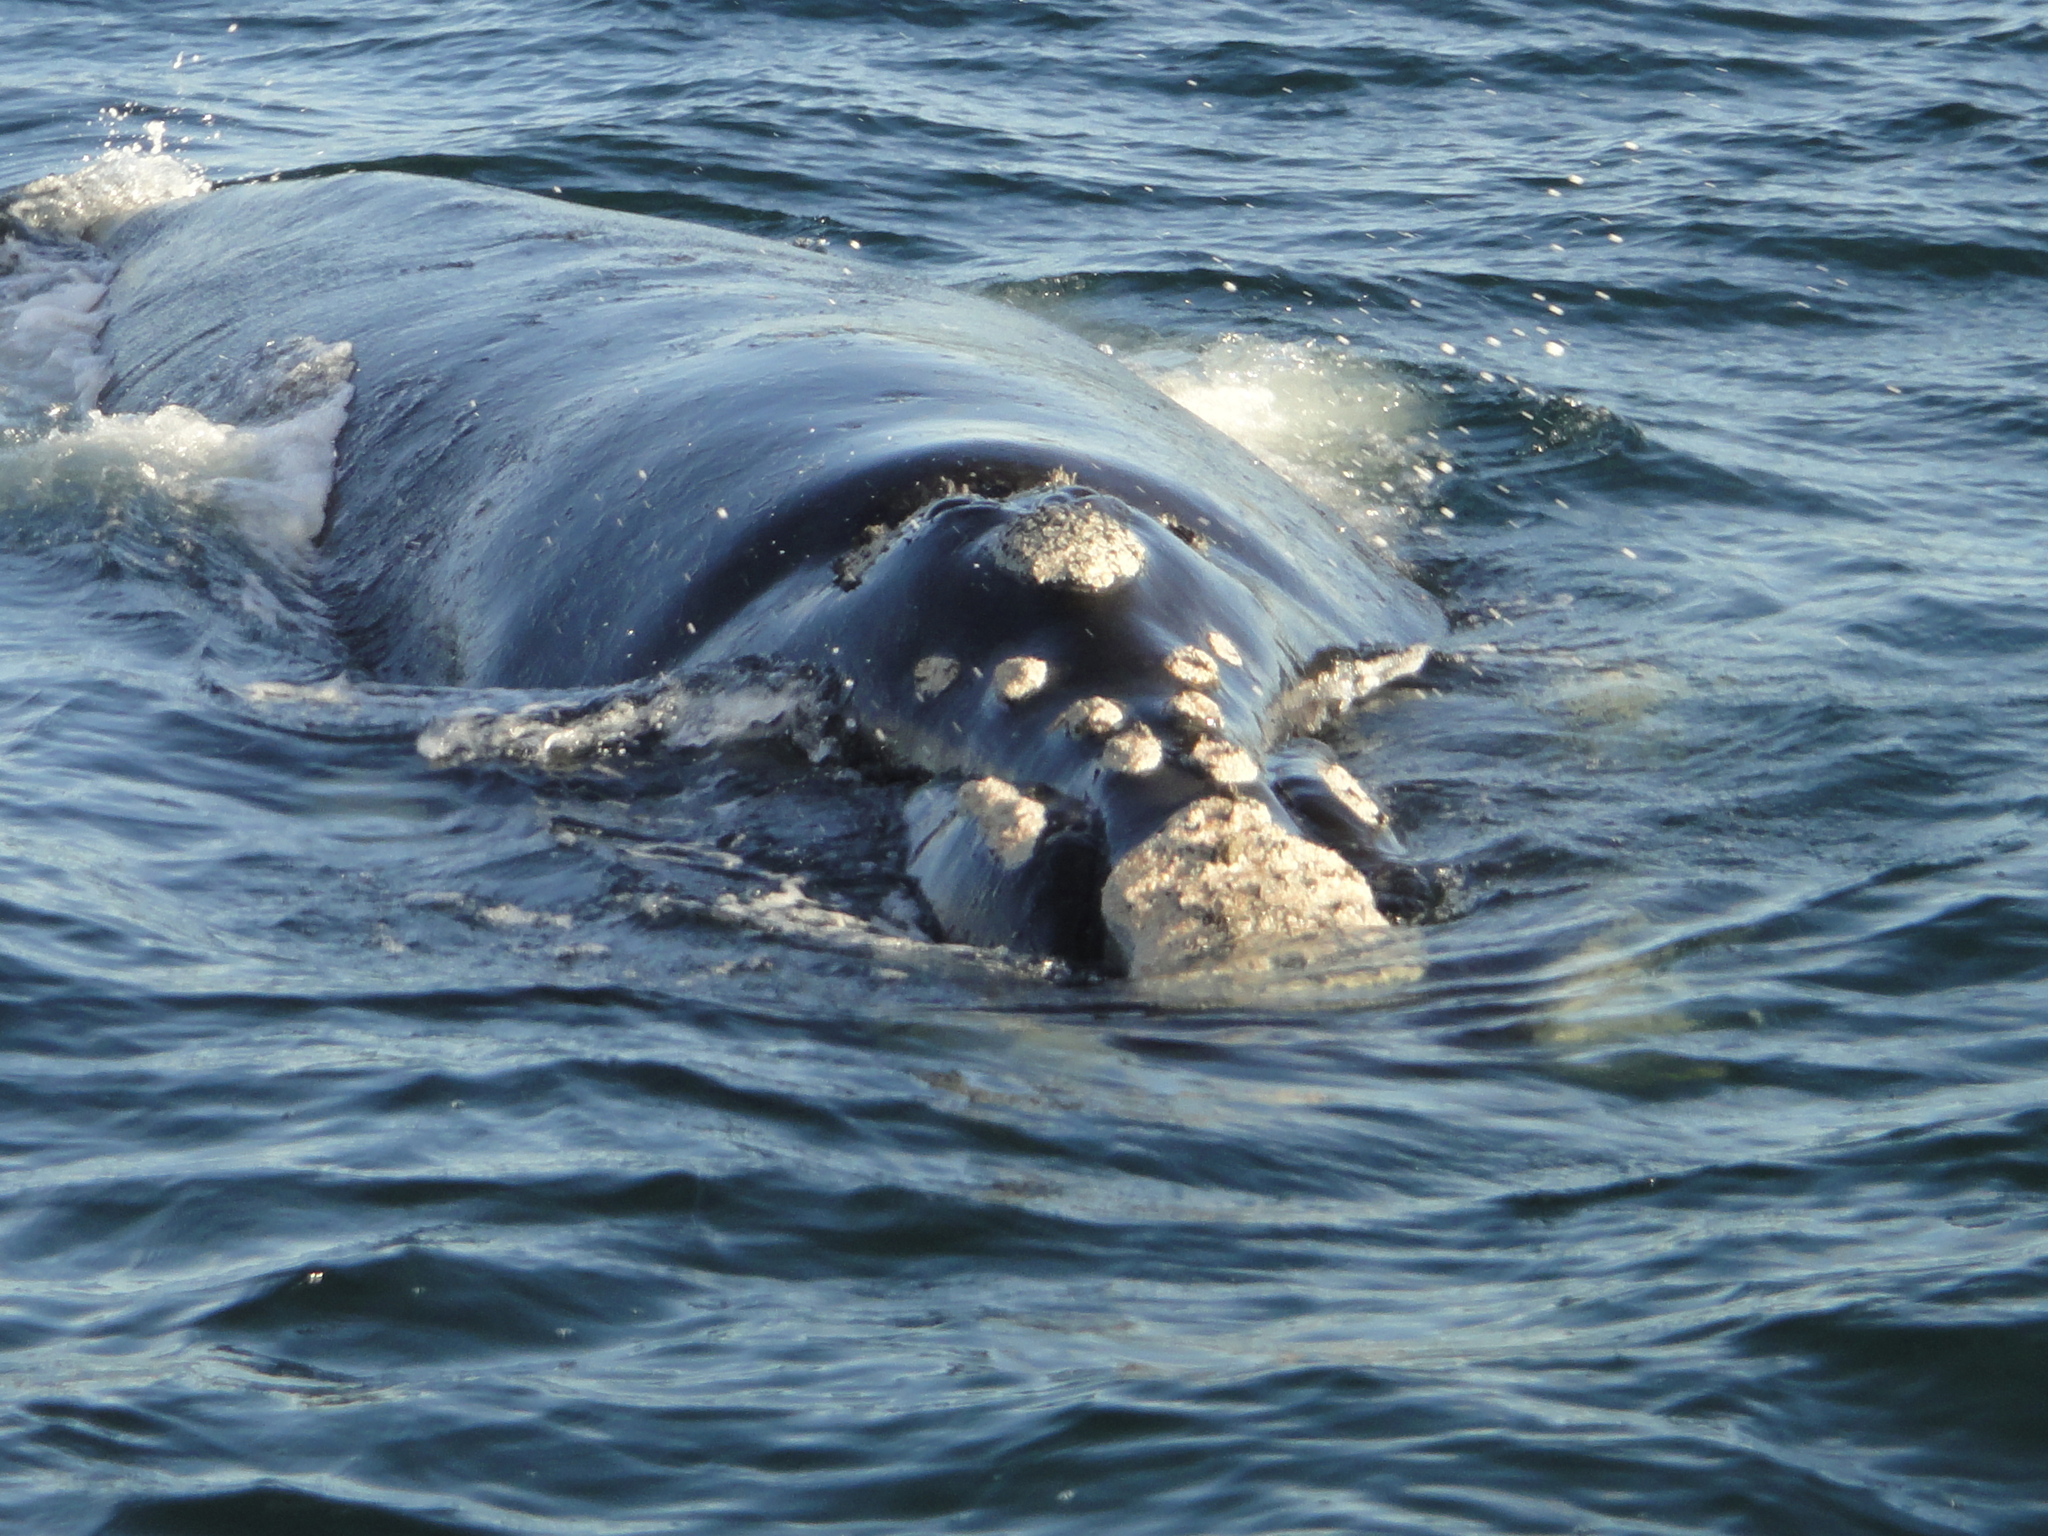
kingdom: Animalia
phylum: Chordata
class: Mammalia
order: Cetacea
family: Balaenidae
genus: Eubalaena
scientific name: Eubalaena australis
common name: Southern right whale
